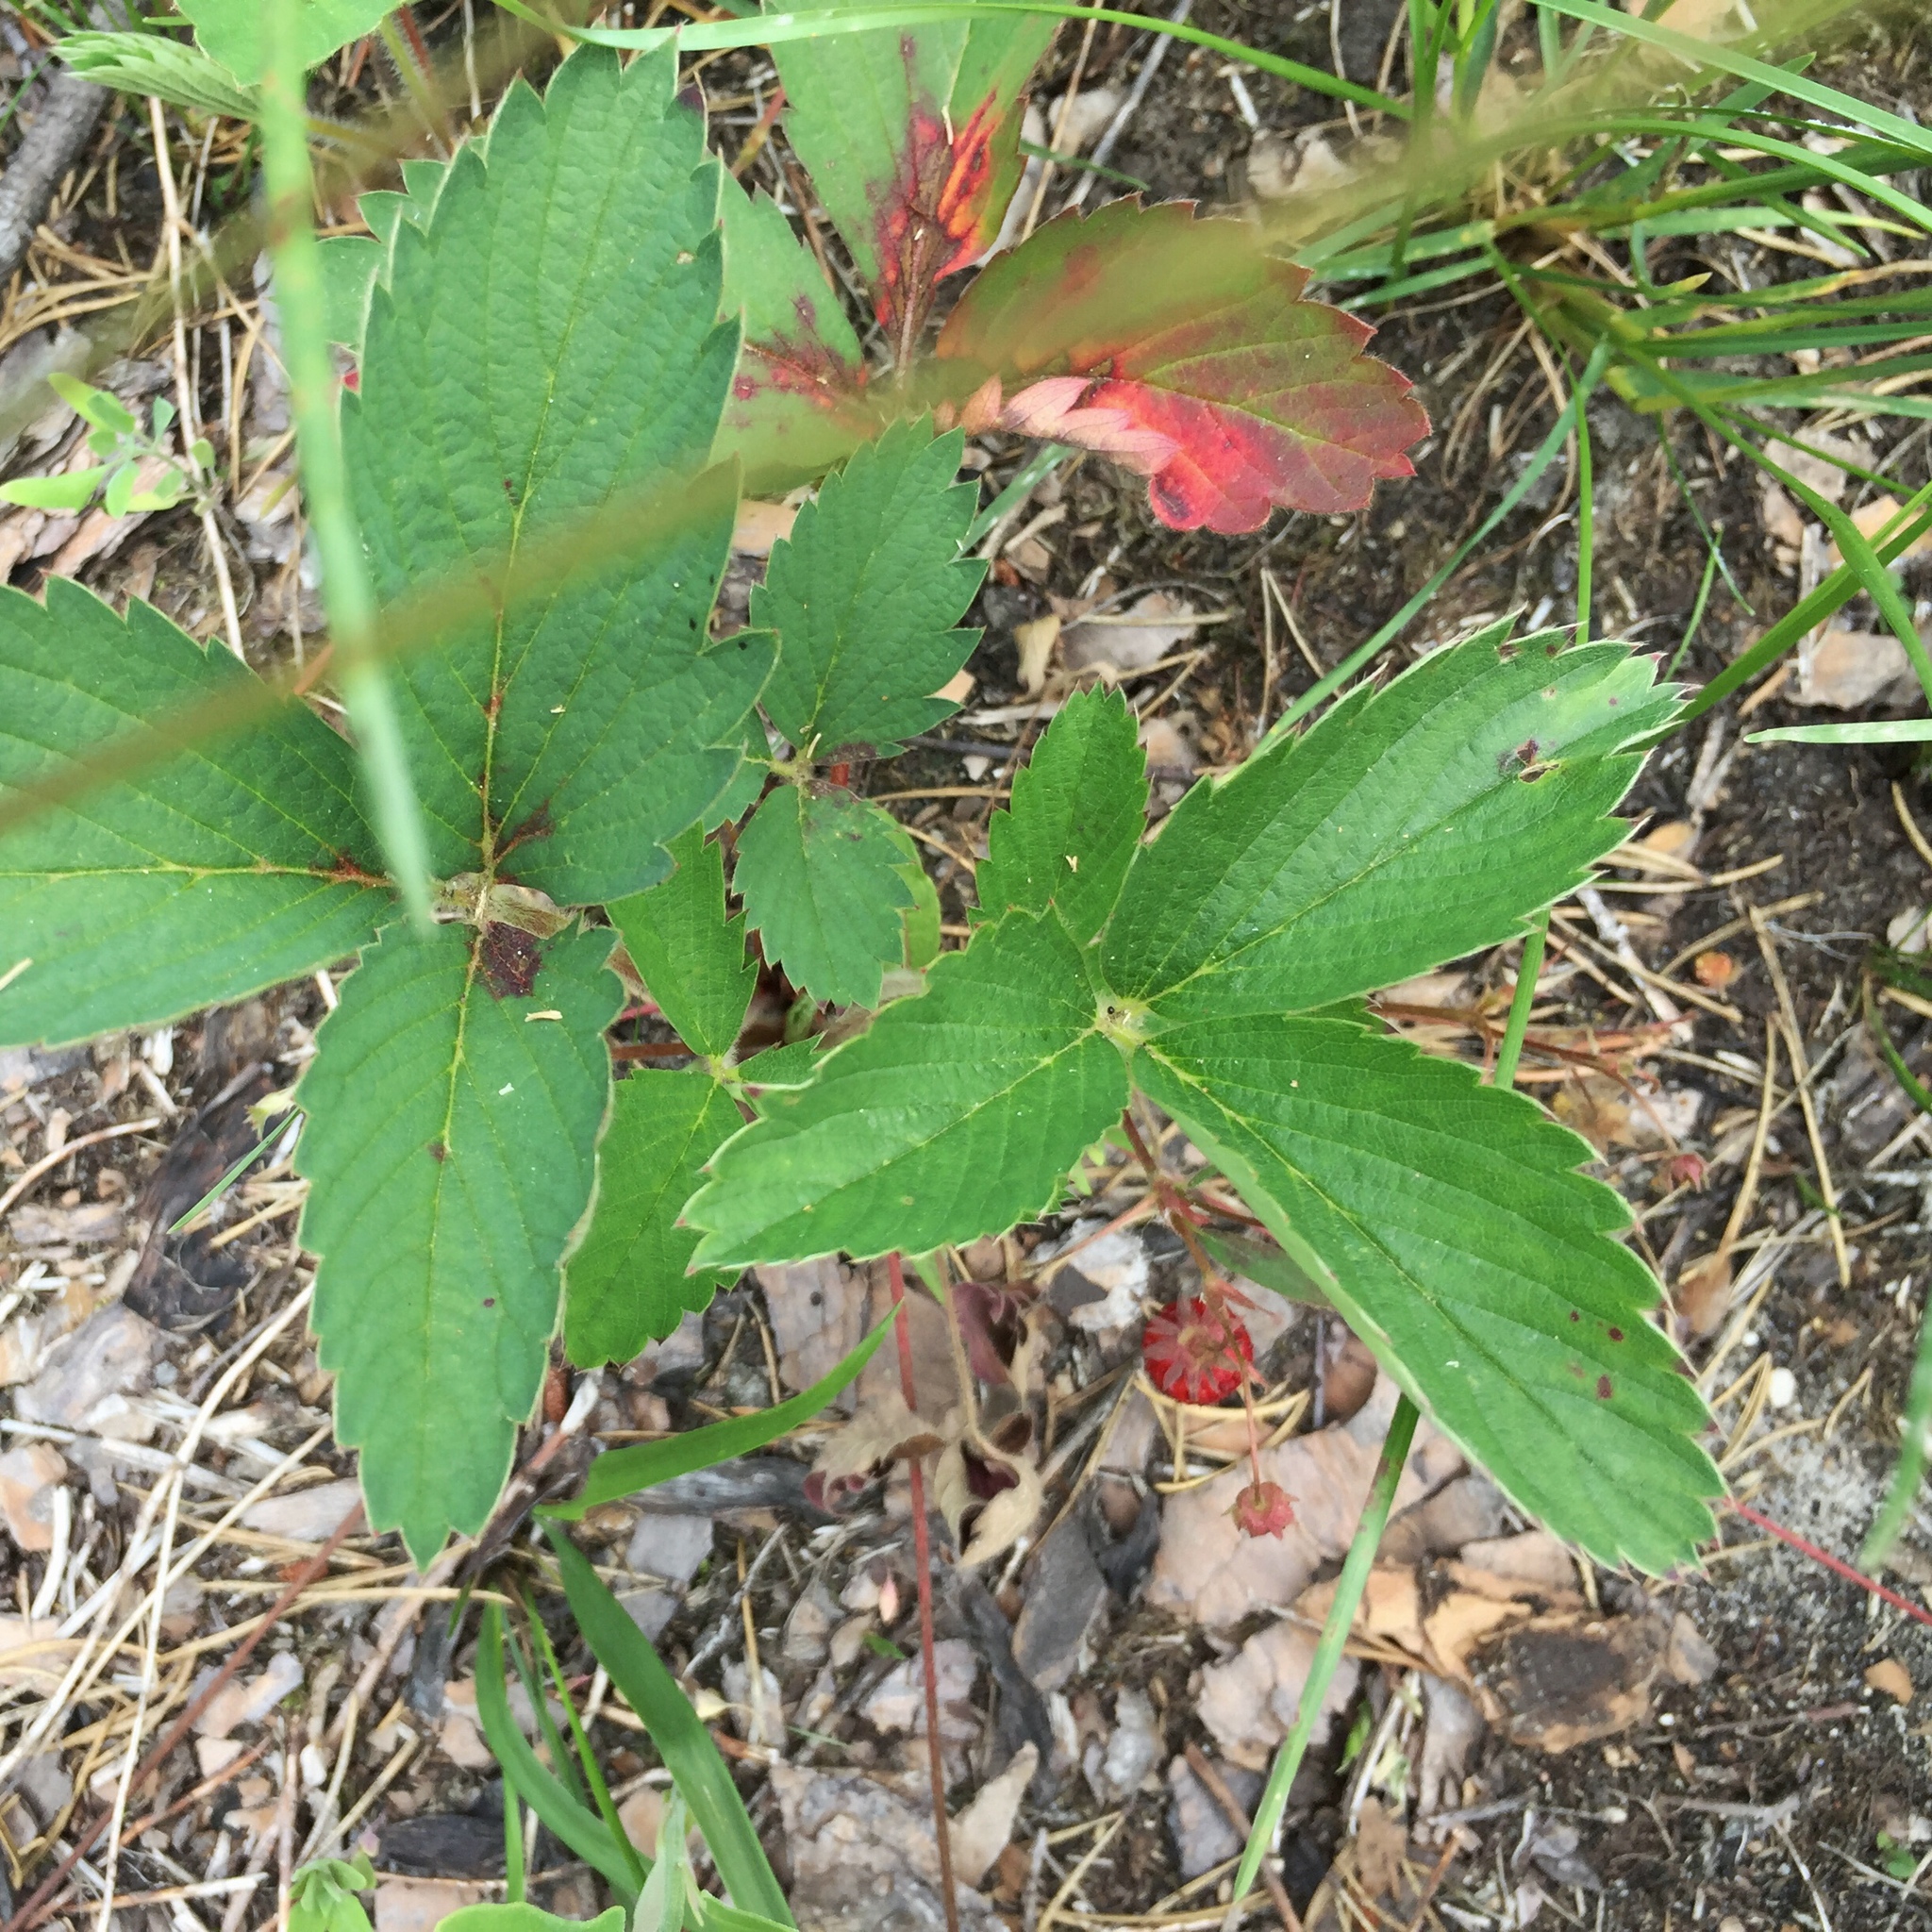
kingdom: Plantae
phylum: Tracheophyta
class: Magnoliopsida
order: Rosales
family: Rosaceae
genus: Fragaria
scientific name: Fragaria virginiana
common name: Thickleaved wild strawberry
